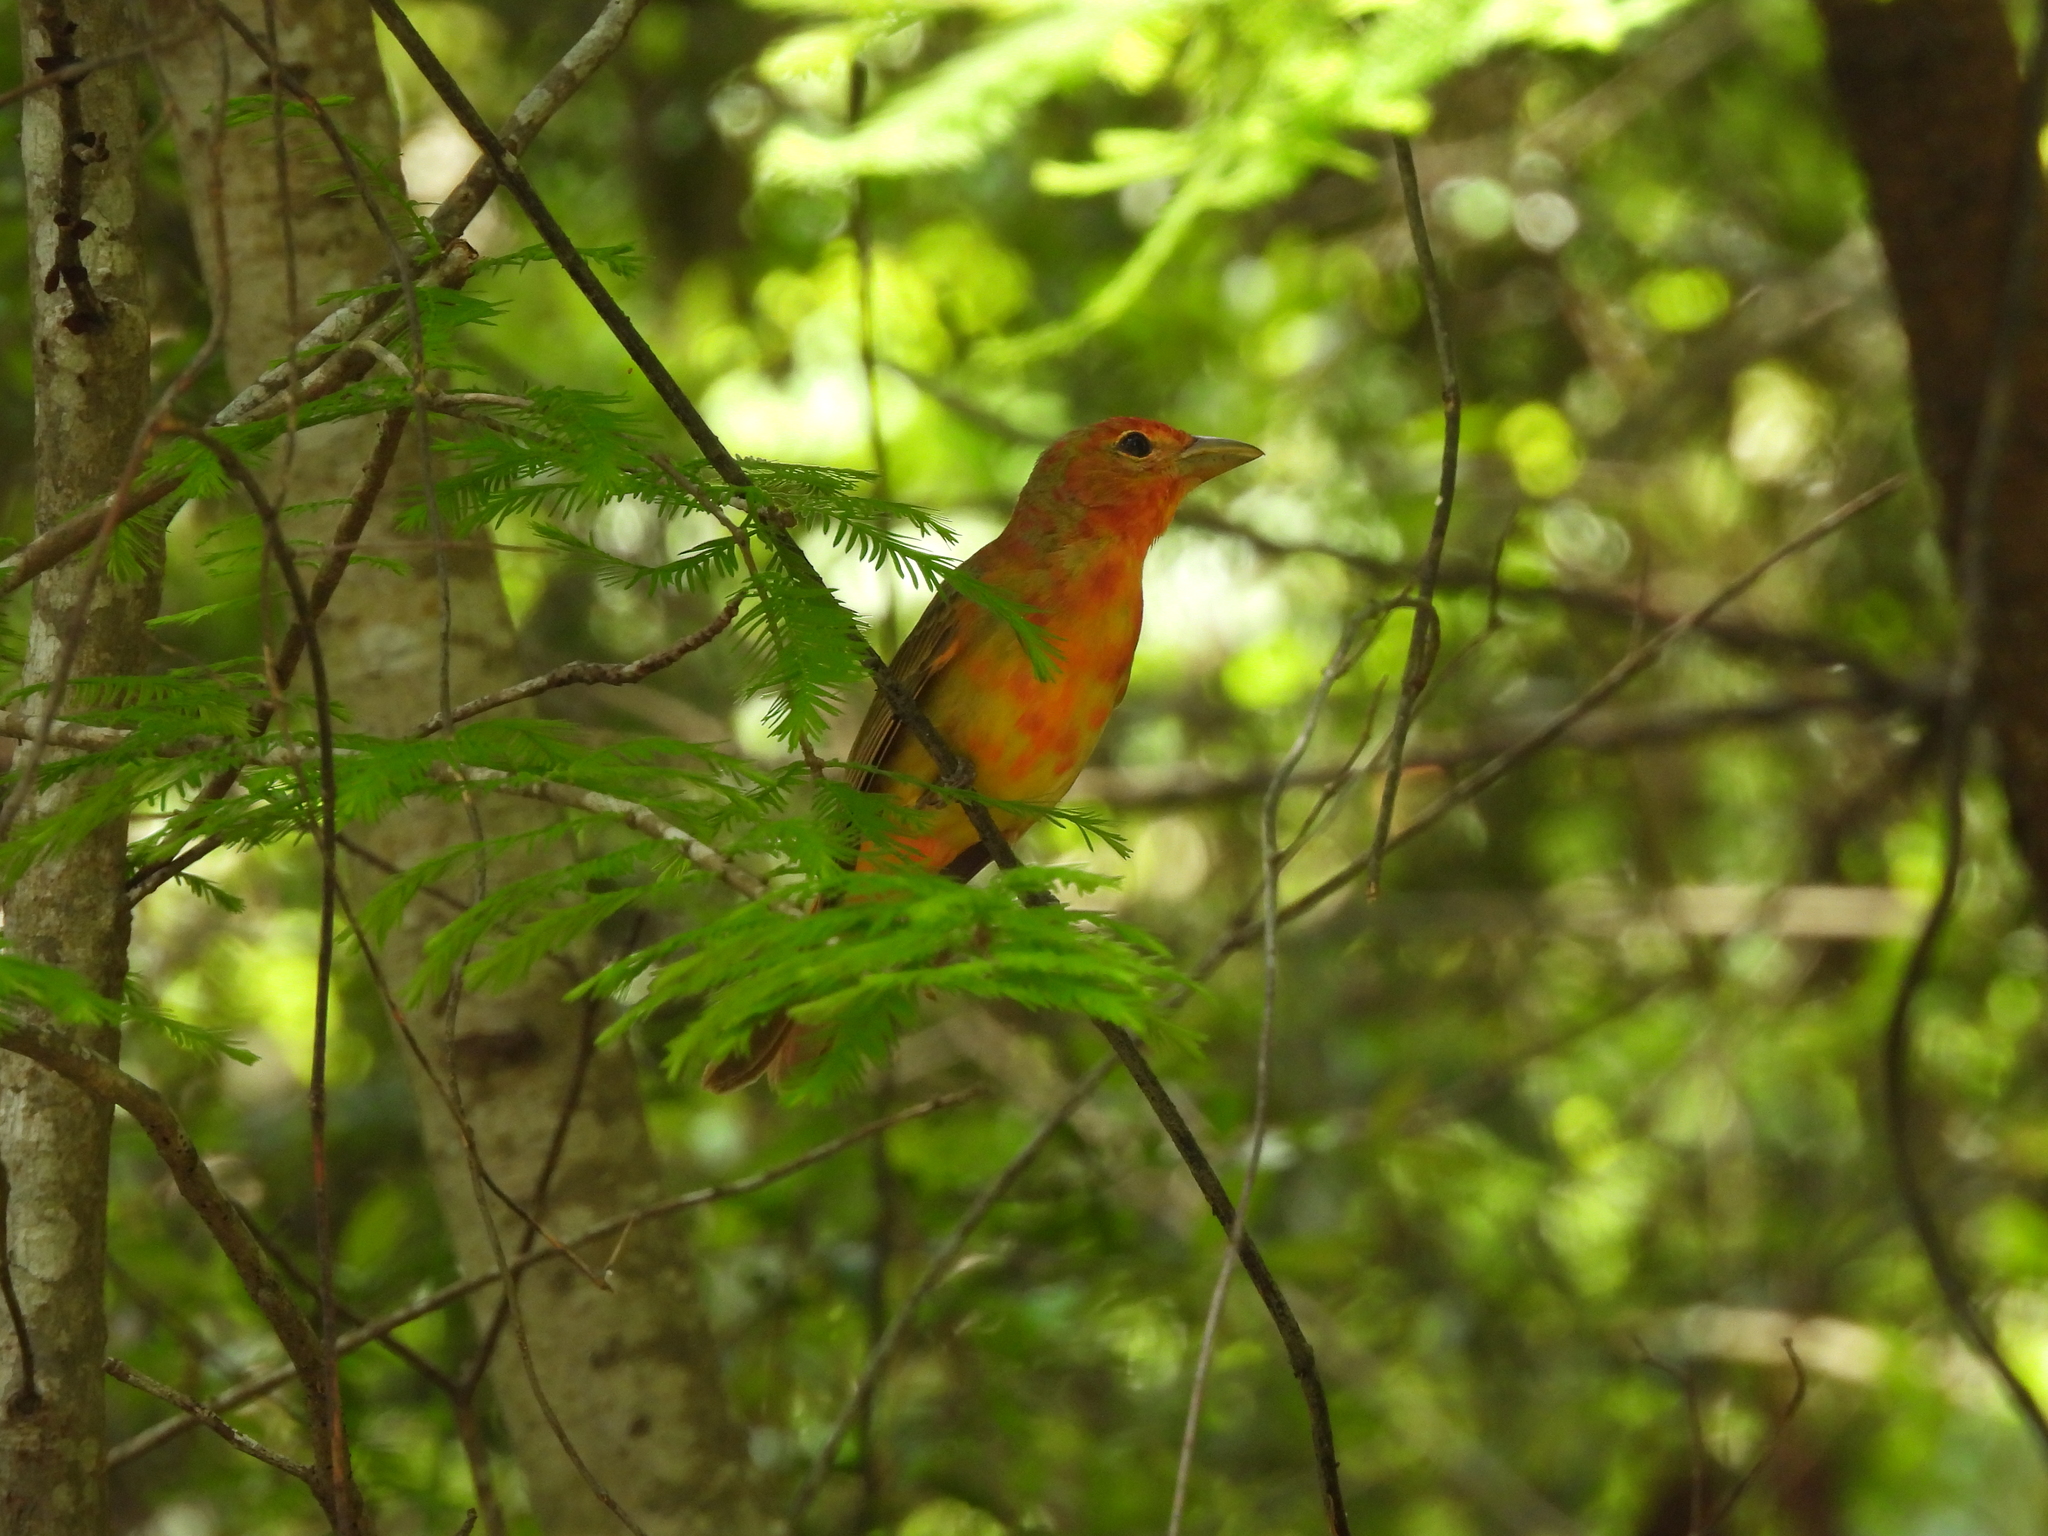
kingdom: Animalia
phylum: Chordata
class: Aves
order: Passeriformes
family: Cardinalidae
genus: Piranga
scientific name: Piranga rubra
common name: Summer tanager
